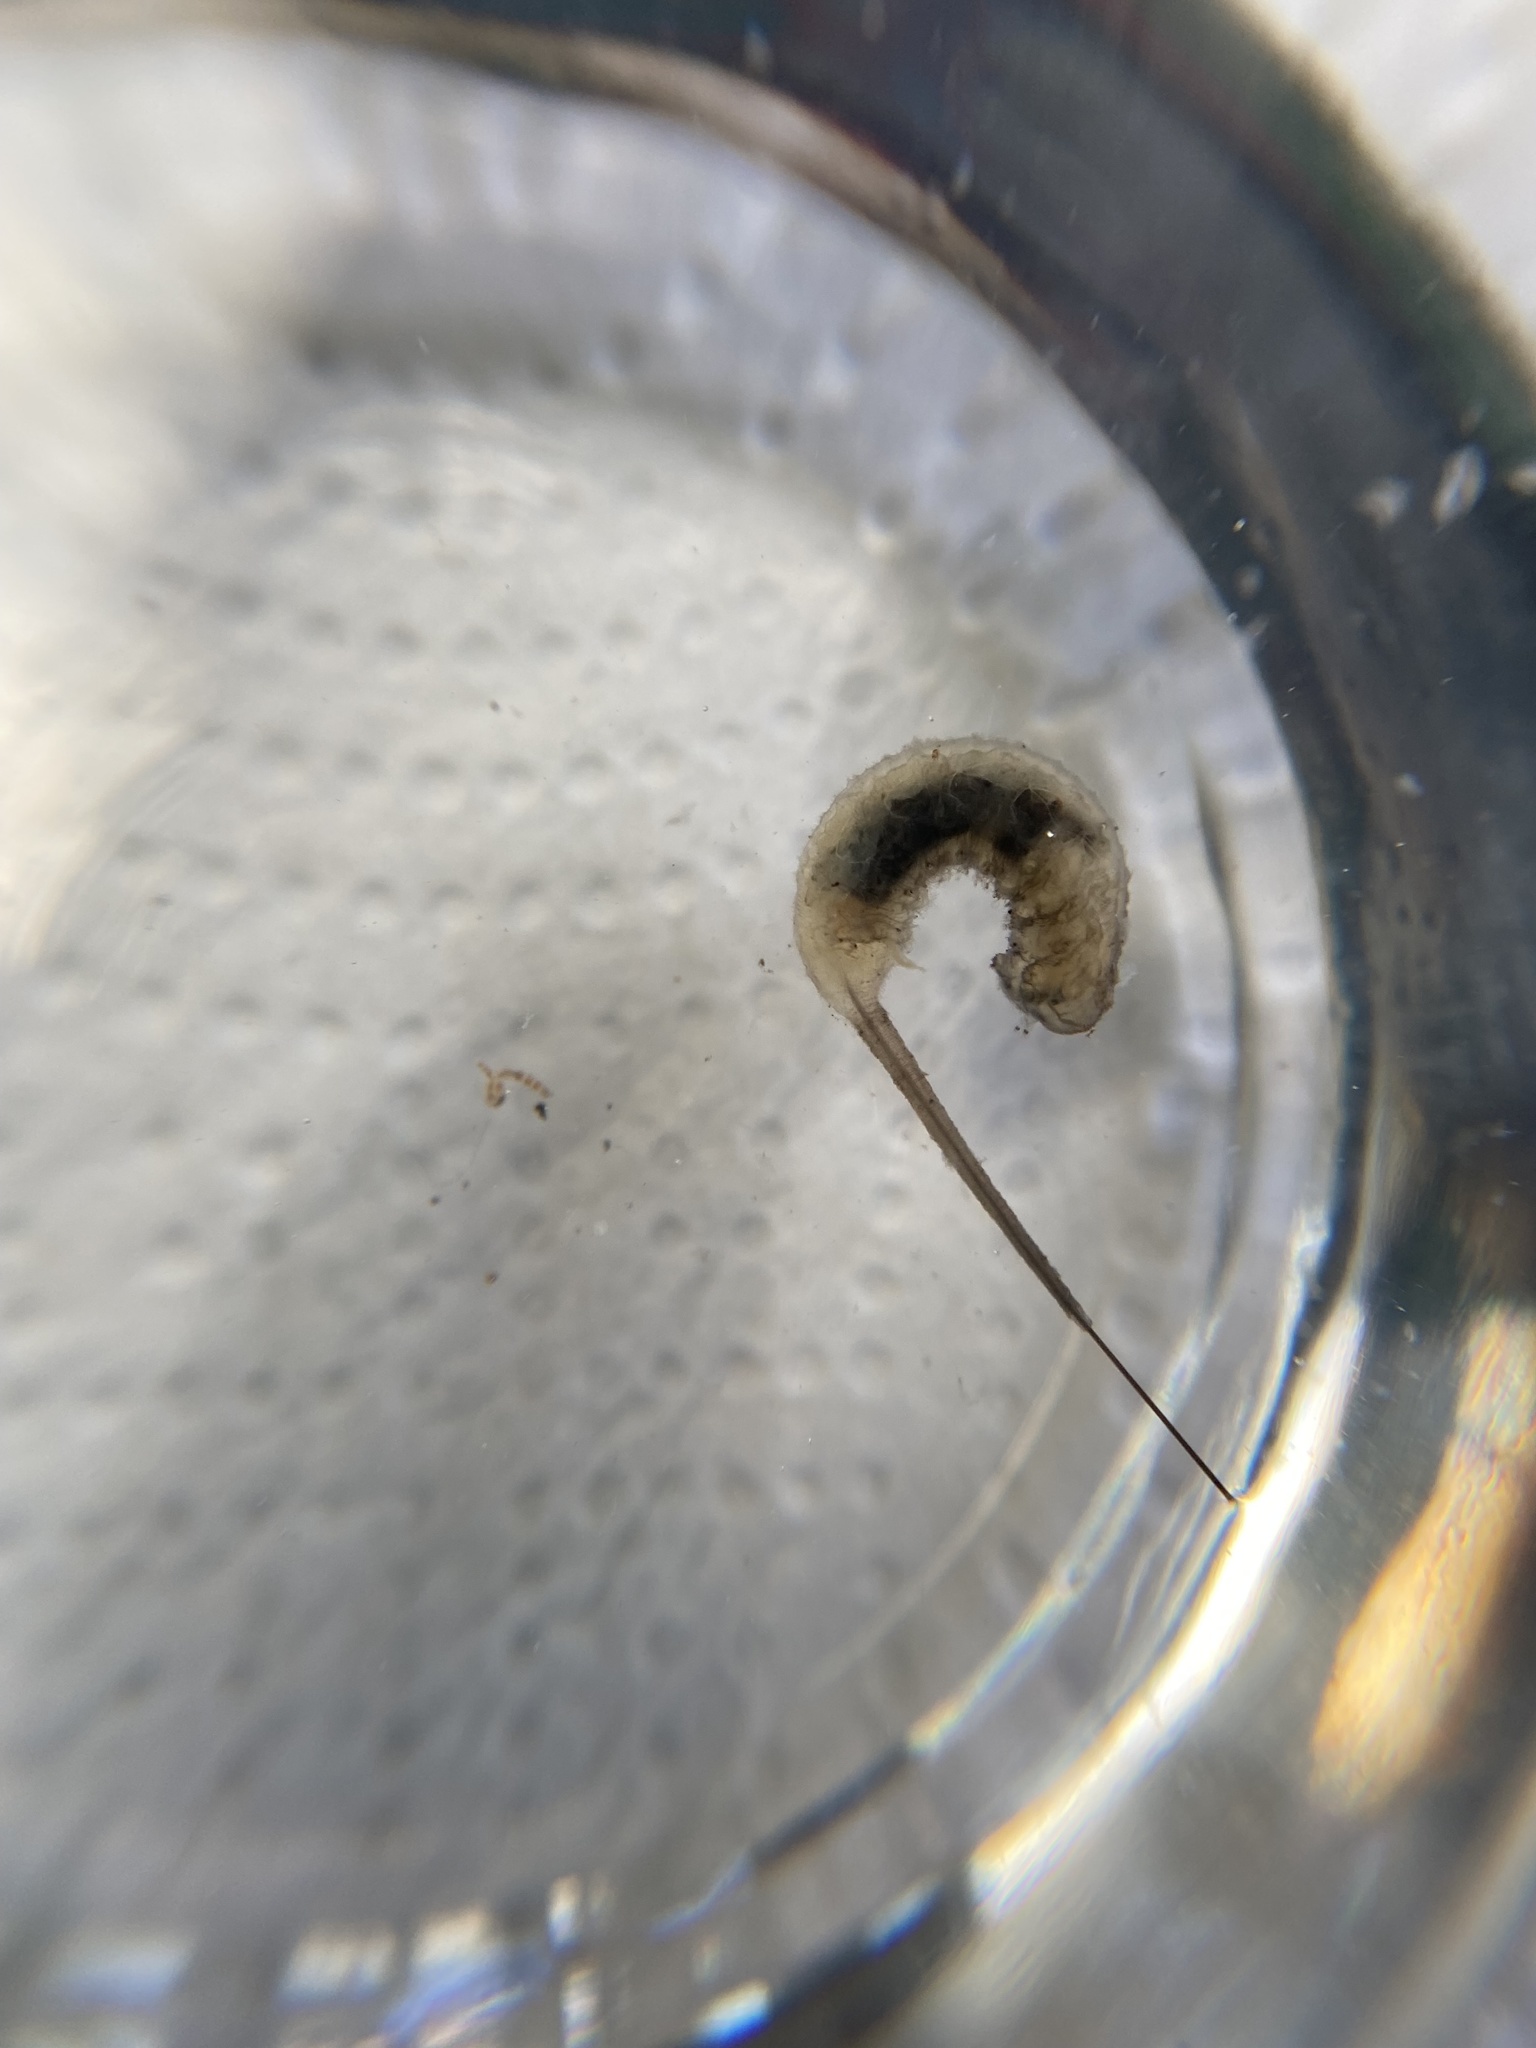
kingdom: Animalia
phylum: Arthropoda
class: Insecta
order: Diptera
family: Syrphidae
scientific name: Syrphidae
